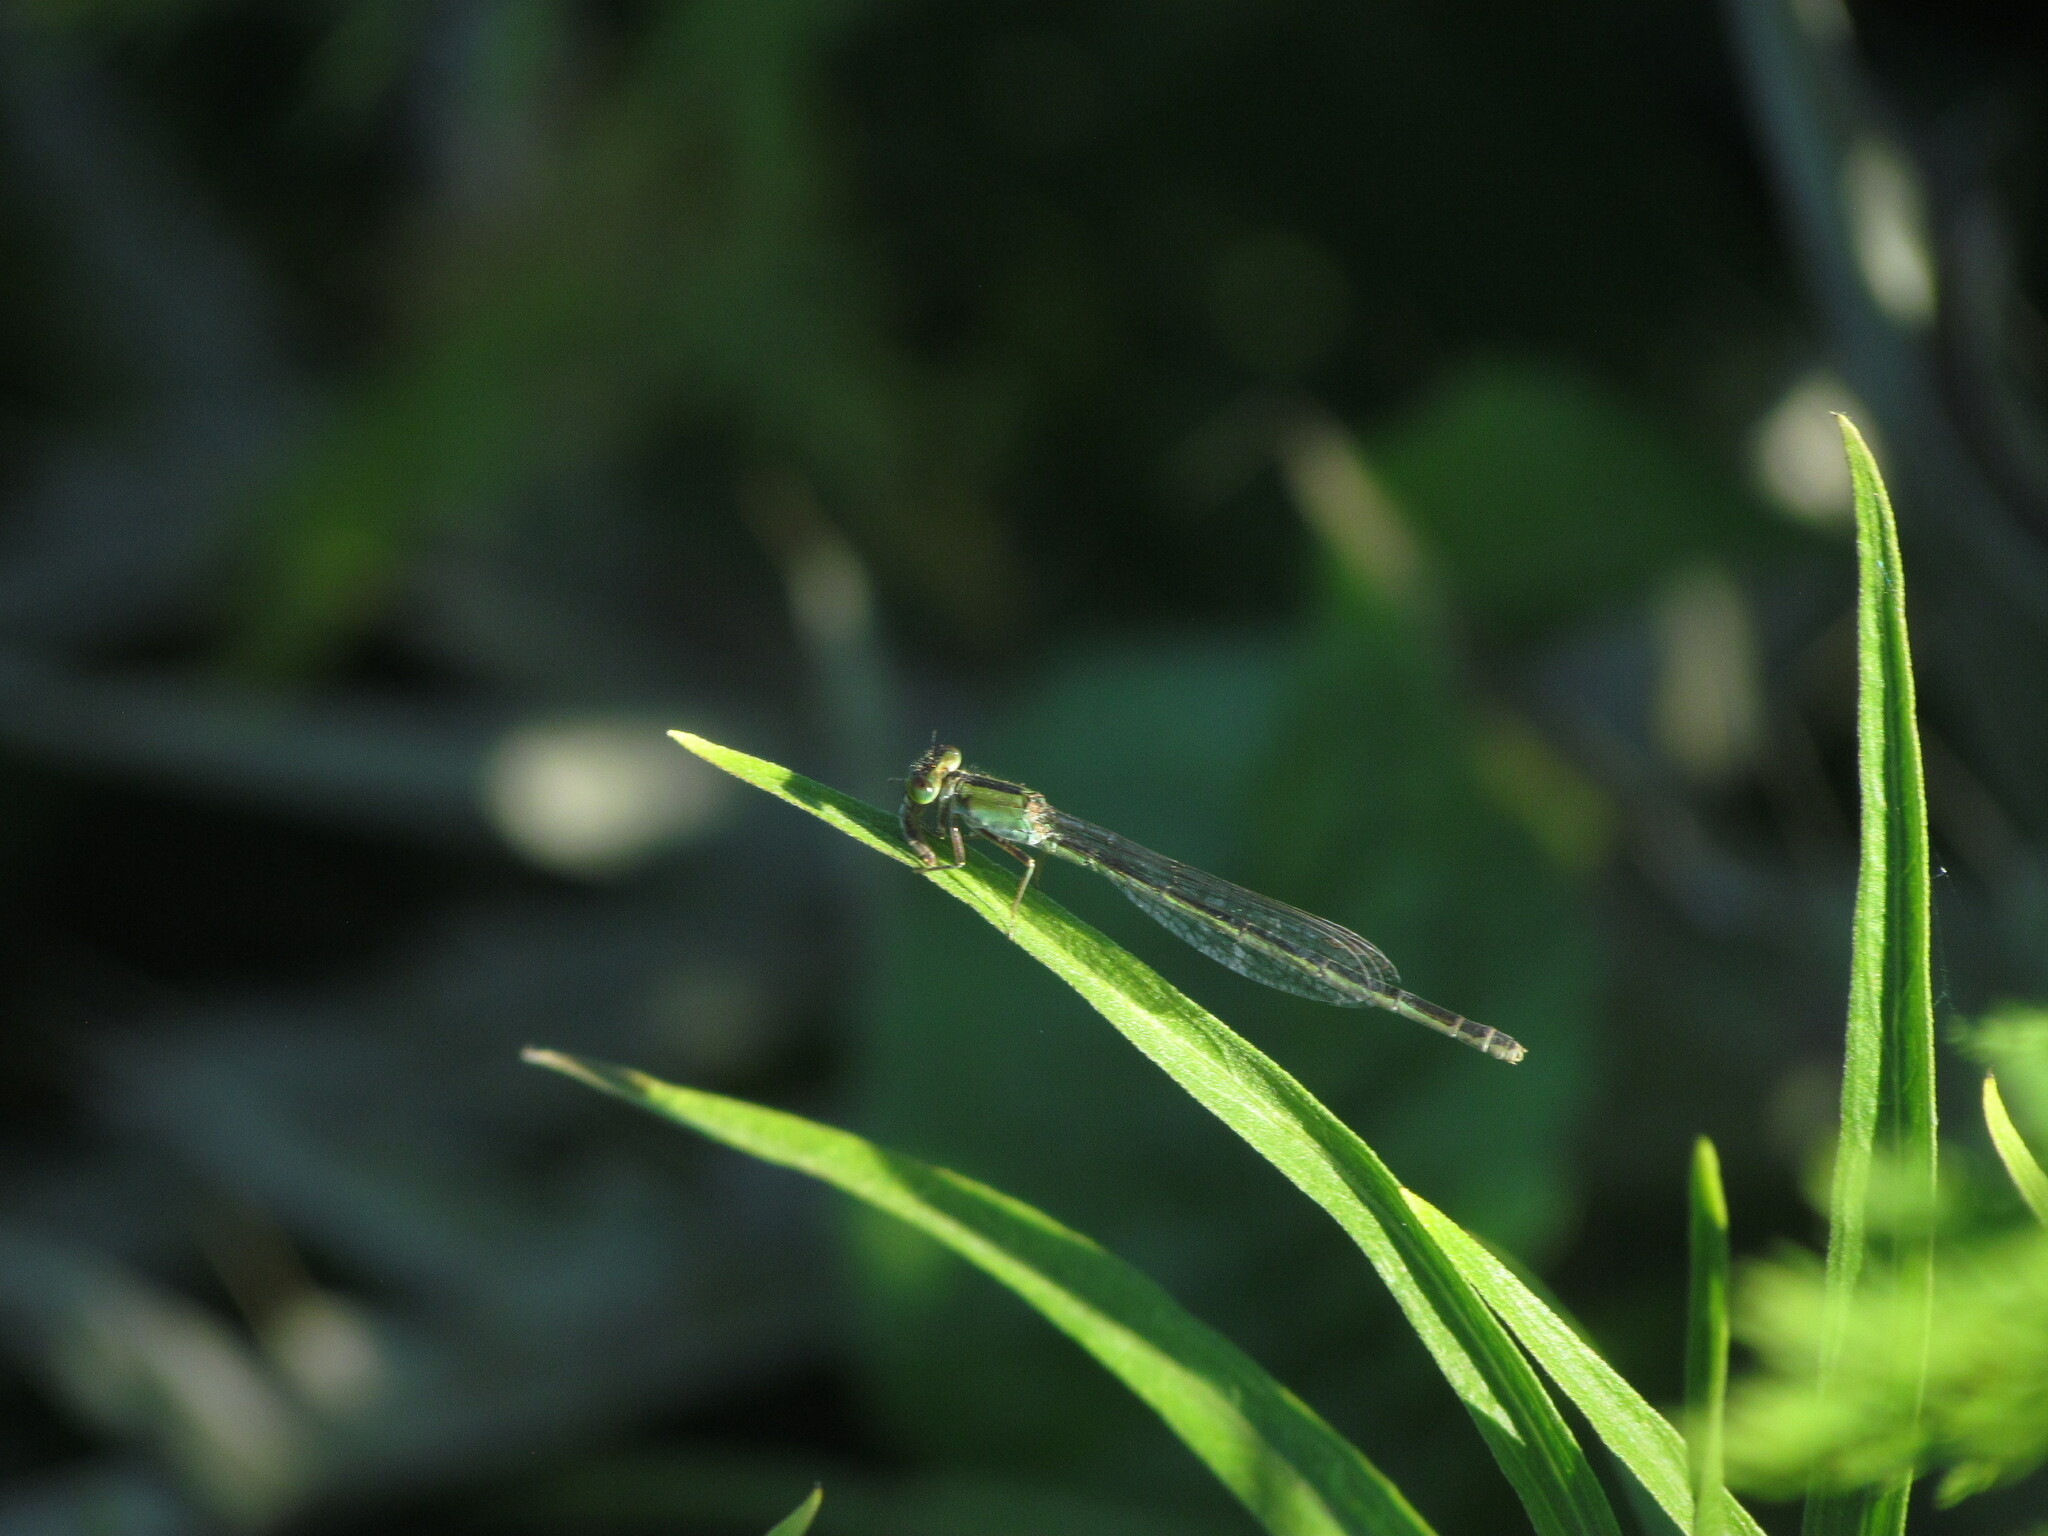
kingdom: Animalia
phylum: Arthropoda
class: Insecta
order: Odonata
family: Coenagrionidae
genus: Ischnura
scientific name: Ischnura fluviatilis
